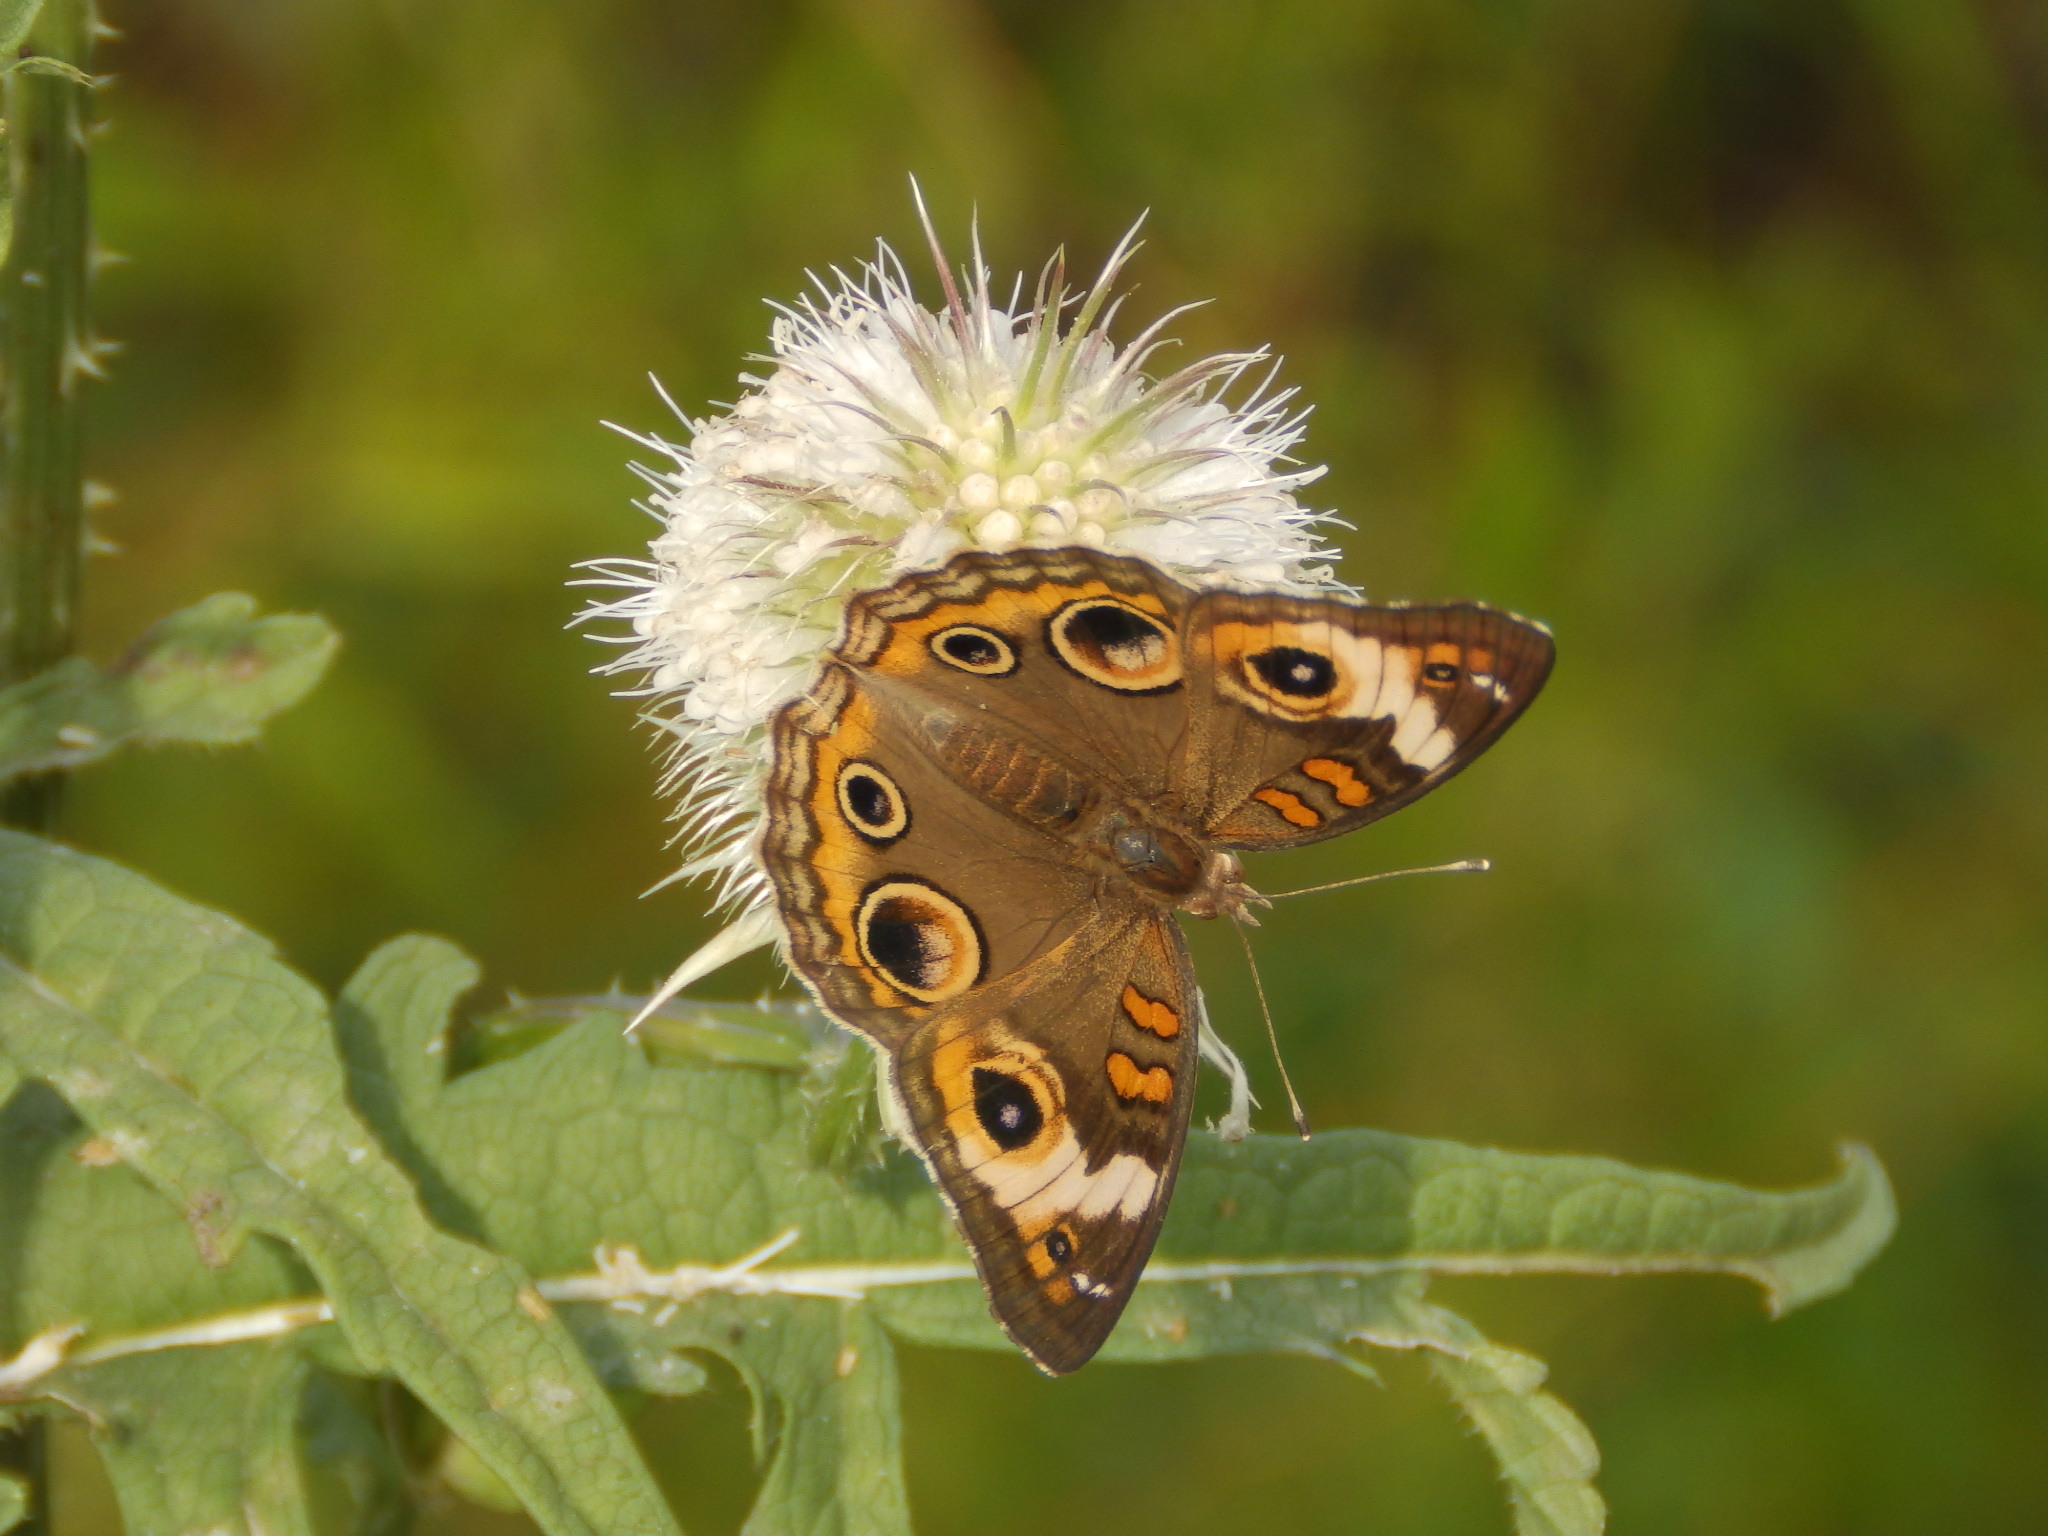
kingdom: Animalia
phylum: Arthropoda
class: Insecta
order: Lepidoptera
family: Nymphalidae
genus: Junonia
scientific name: Junonia coenia
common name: Common buckeye
